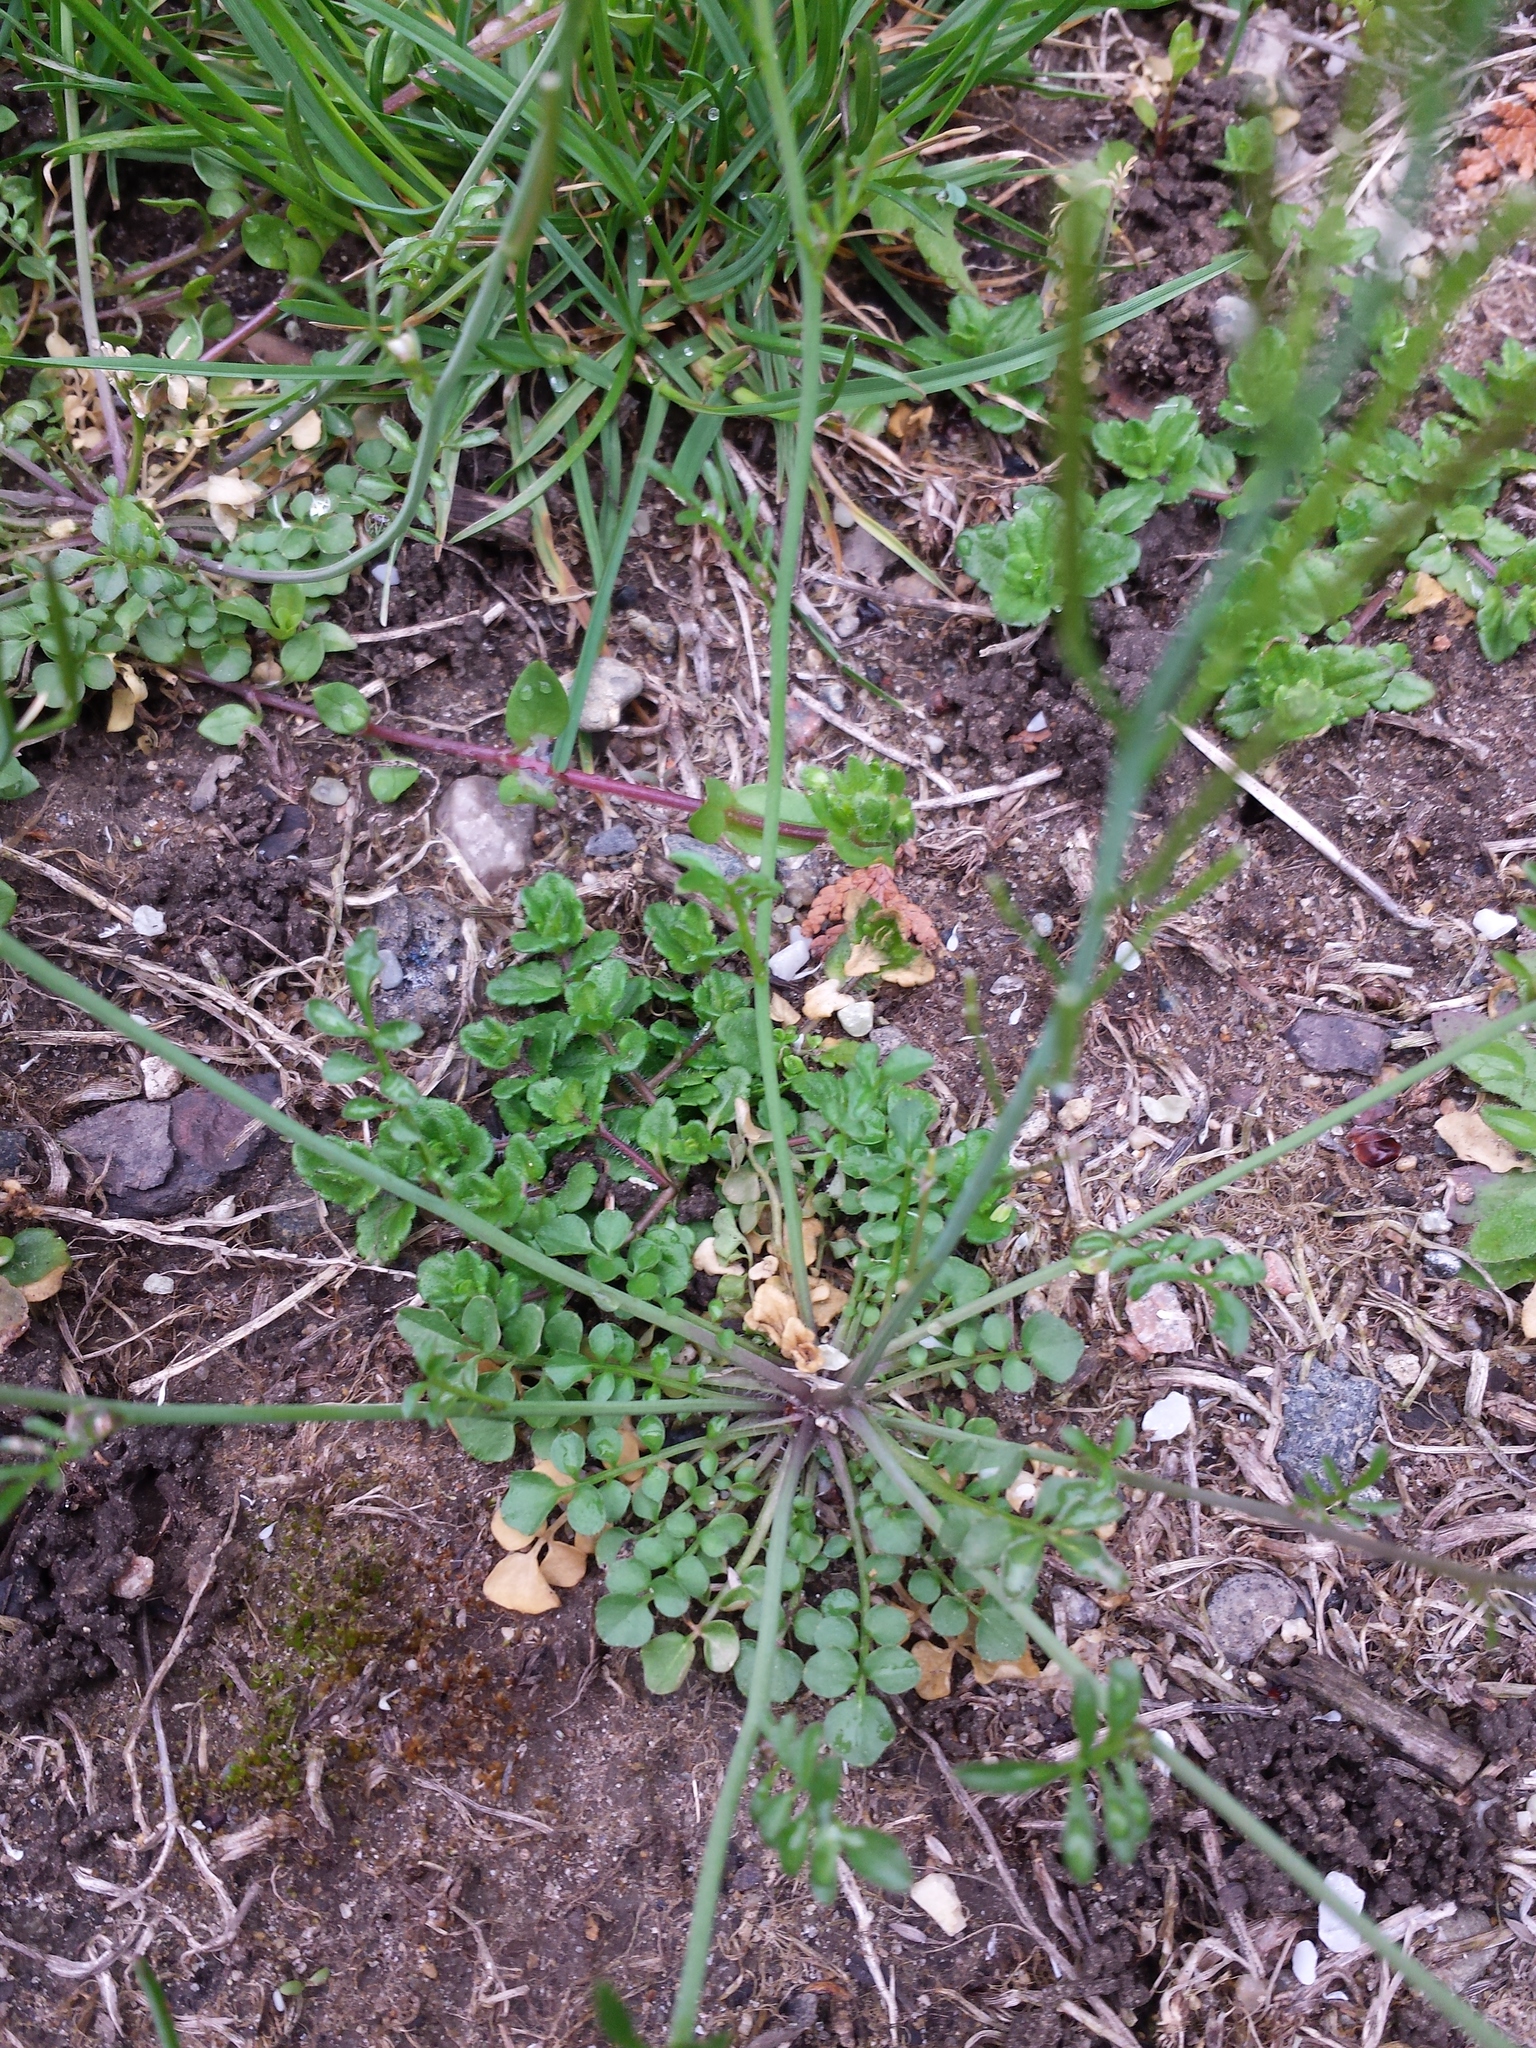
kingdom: Plantae
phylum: Tracheophyta
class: Magnoliopsida
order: Brassicales
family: Brassicaceae
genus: Cardamine
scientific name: Cardamine hirsuta
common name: Hairy bittercress
